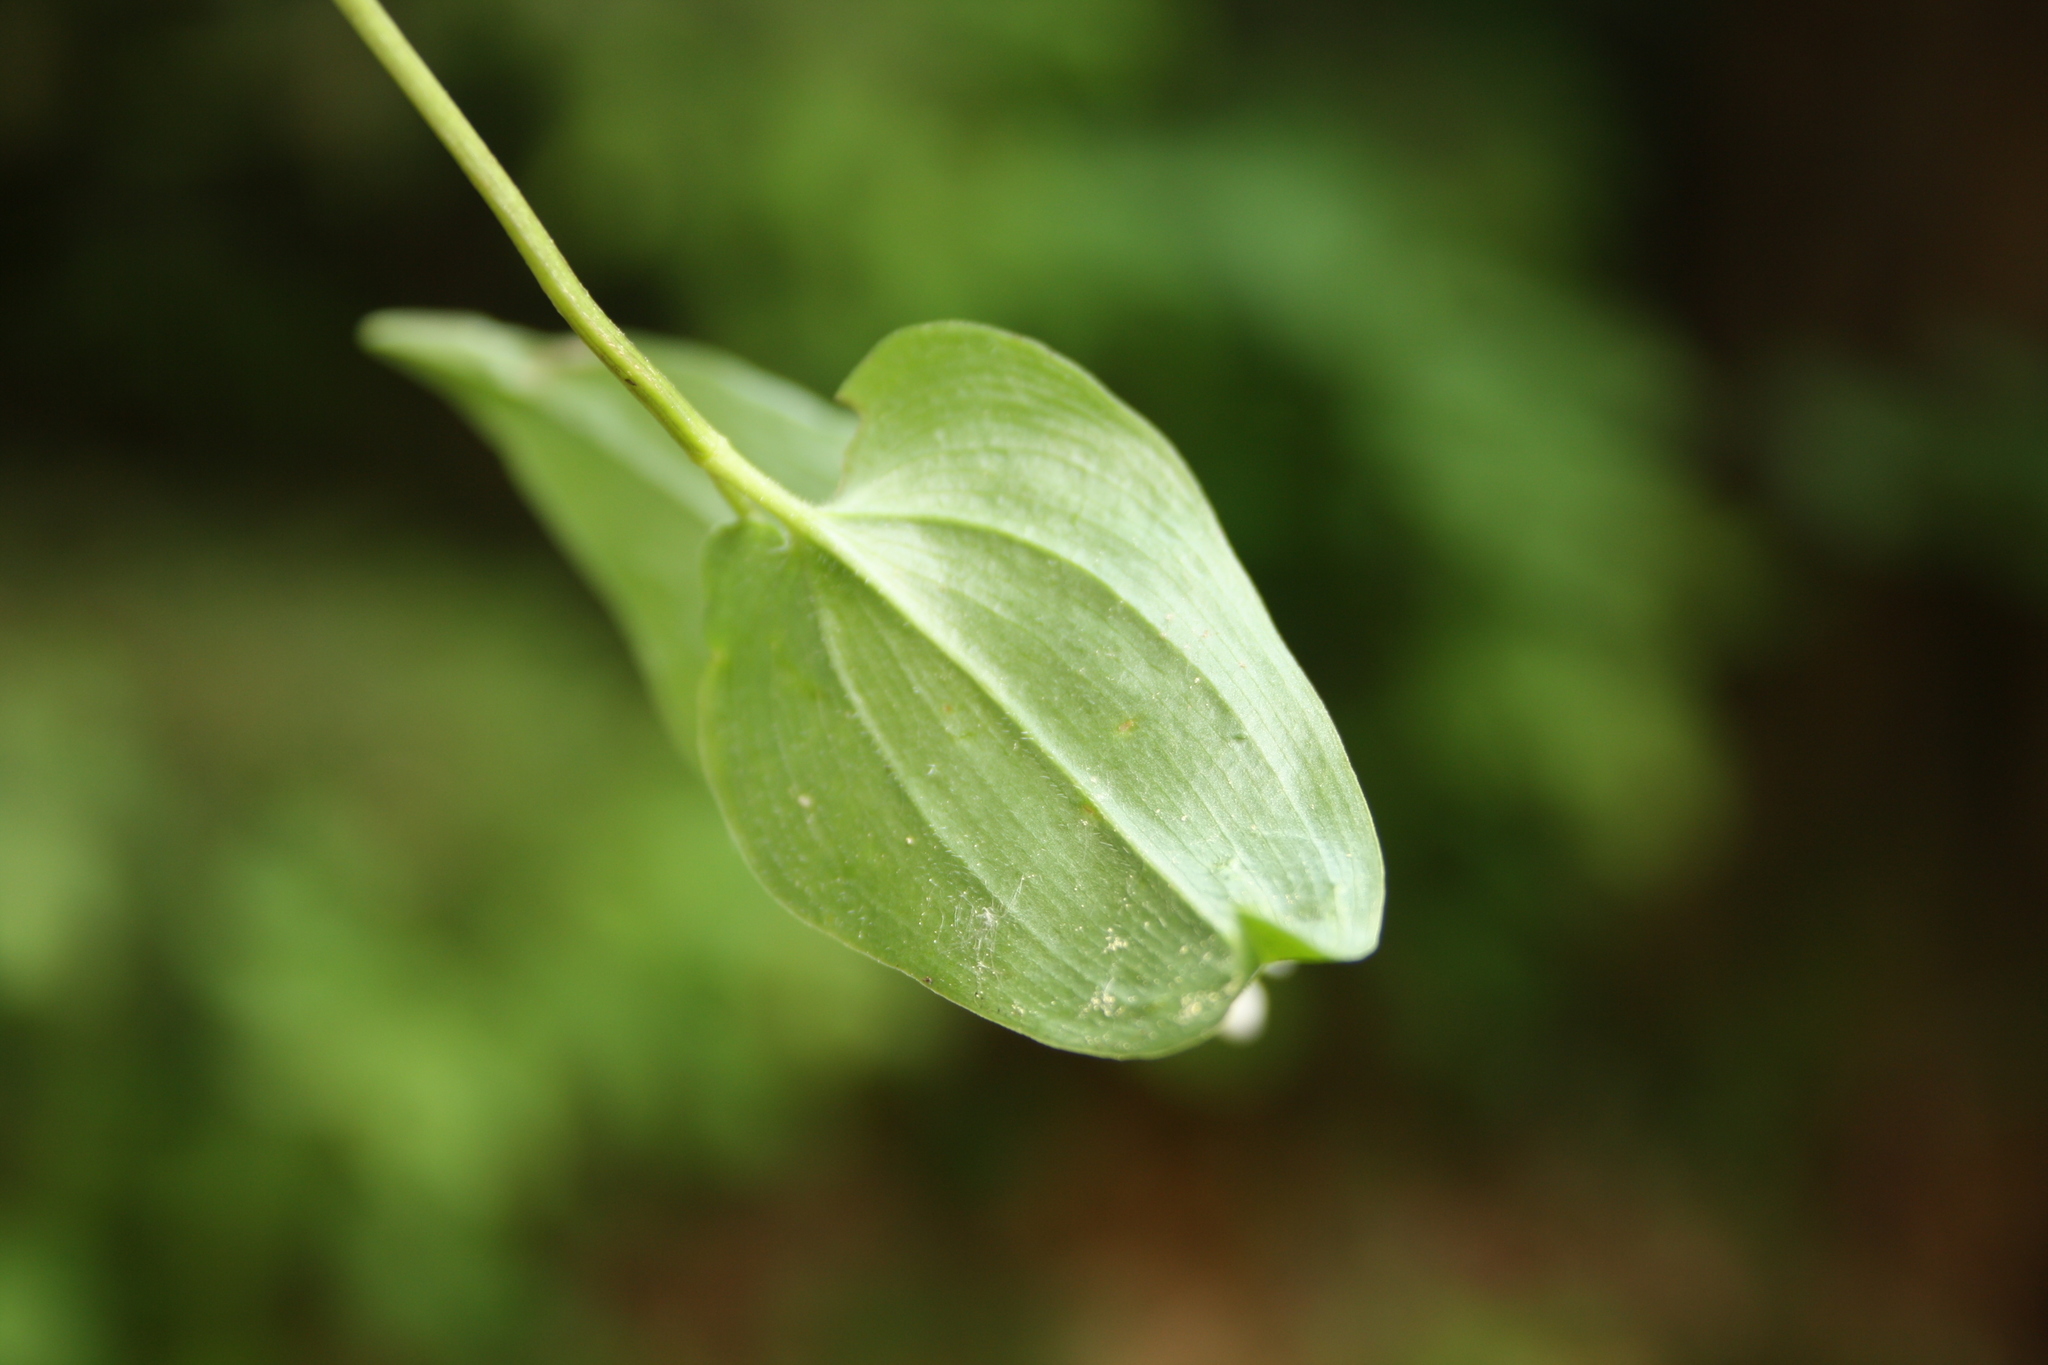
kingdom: Plantae
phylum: Tracheophyta
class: Liliopsida
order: Asparagales
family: Asparagaceae
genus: Maianthemum
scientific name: Maianthemum bifolium
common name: May lily
